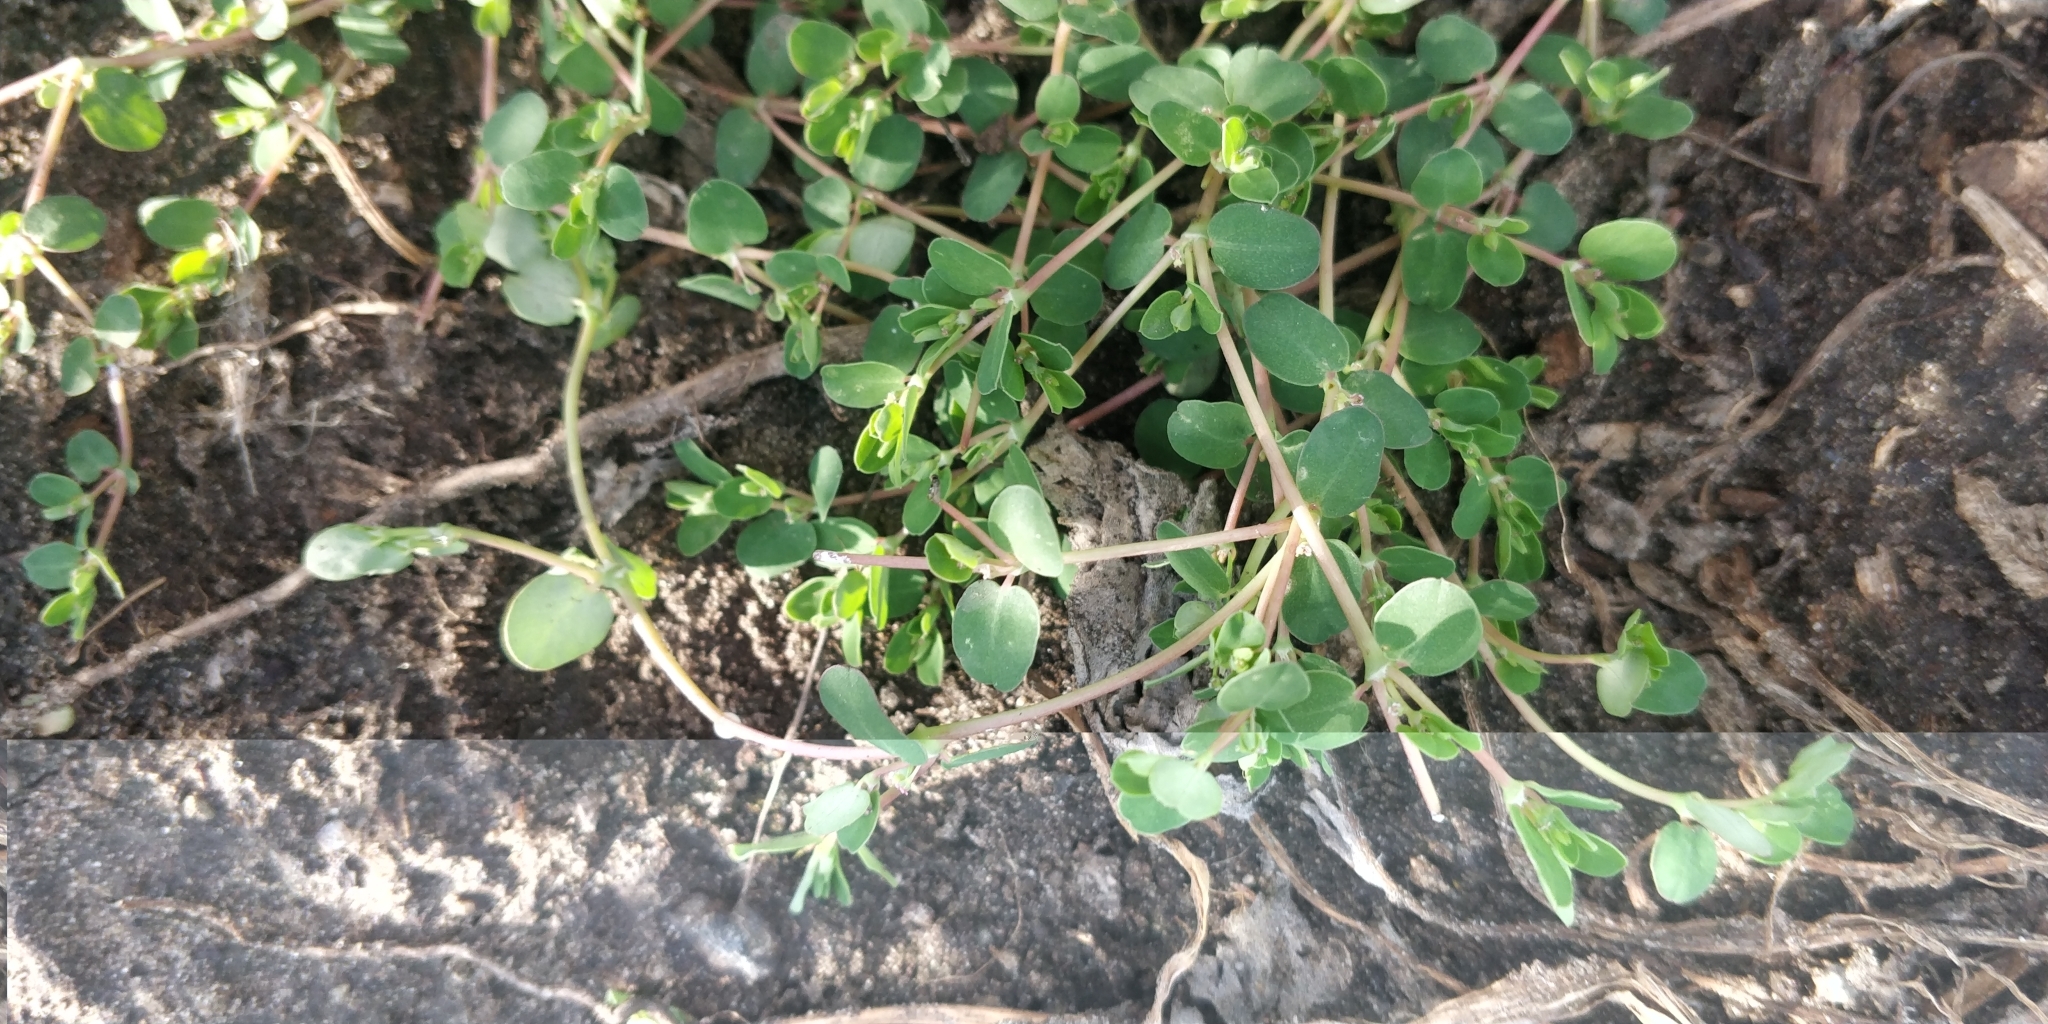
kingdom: Plantae
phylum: Tracheophyta
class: Magnoliopsida
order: Malpighiales
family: Euphorbiaceae
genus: Euphorbia
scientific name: Euphorbia serpens
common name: Matted sandmat
